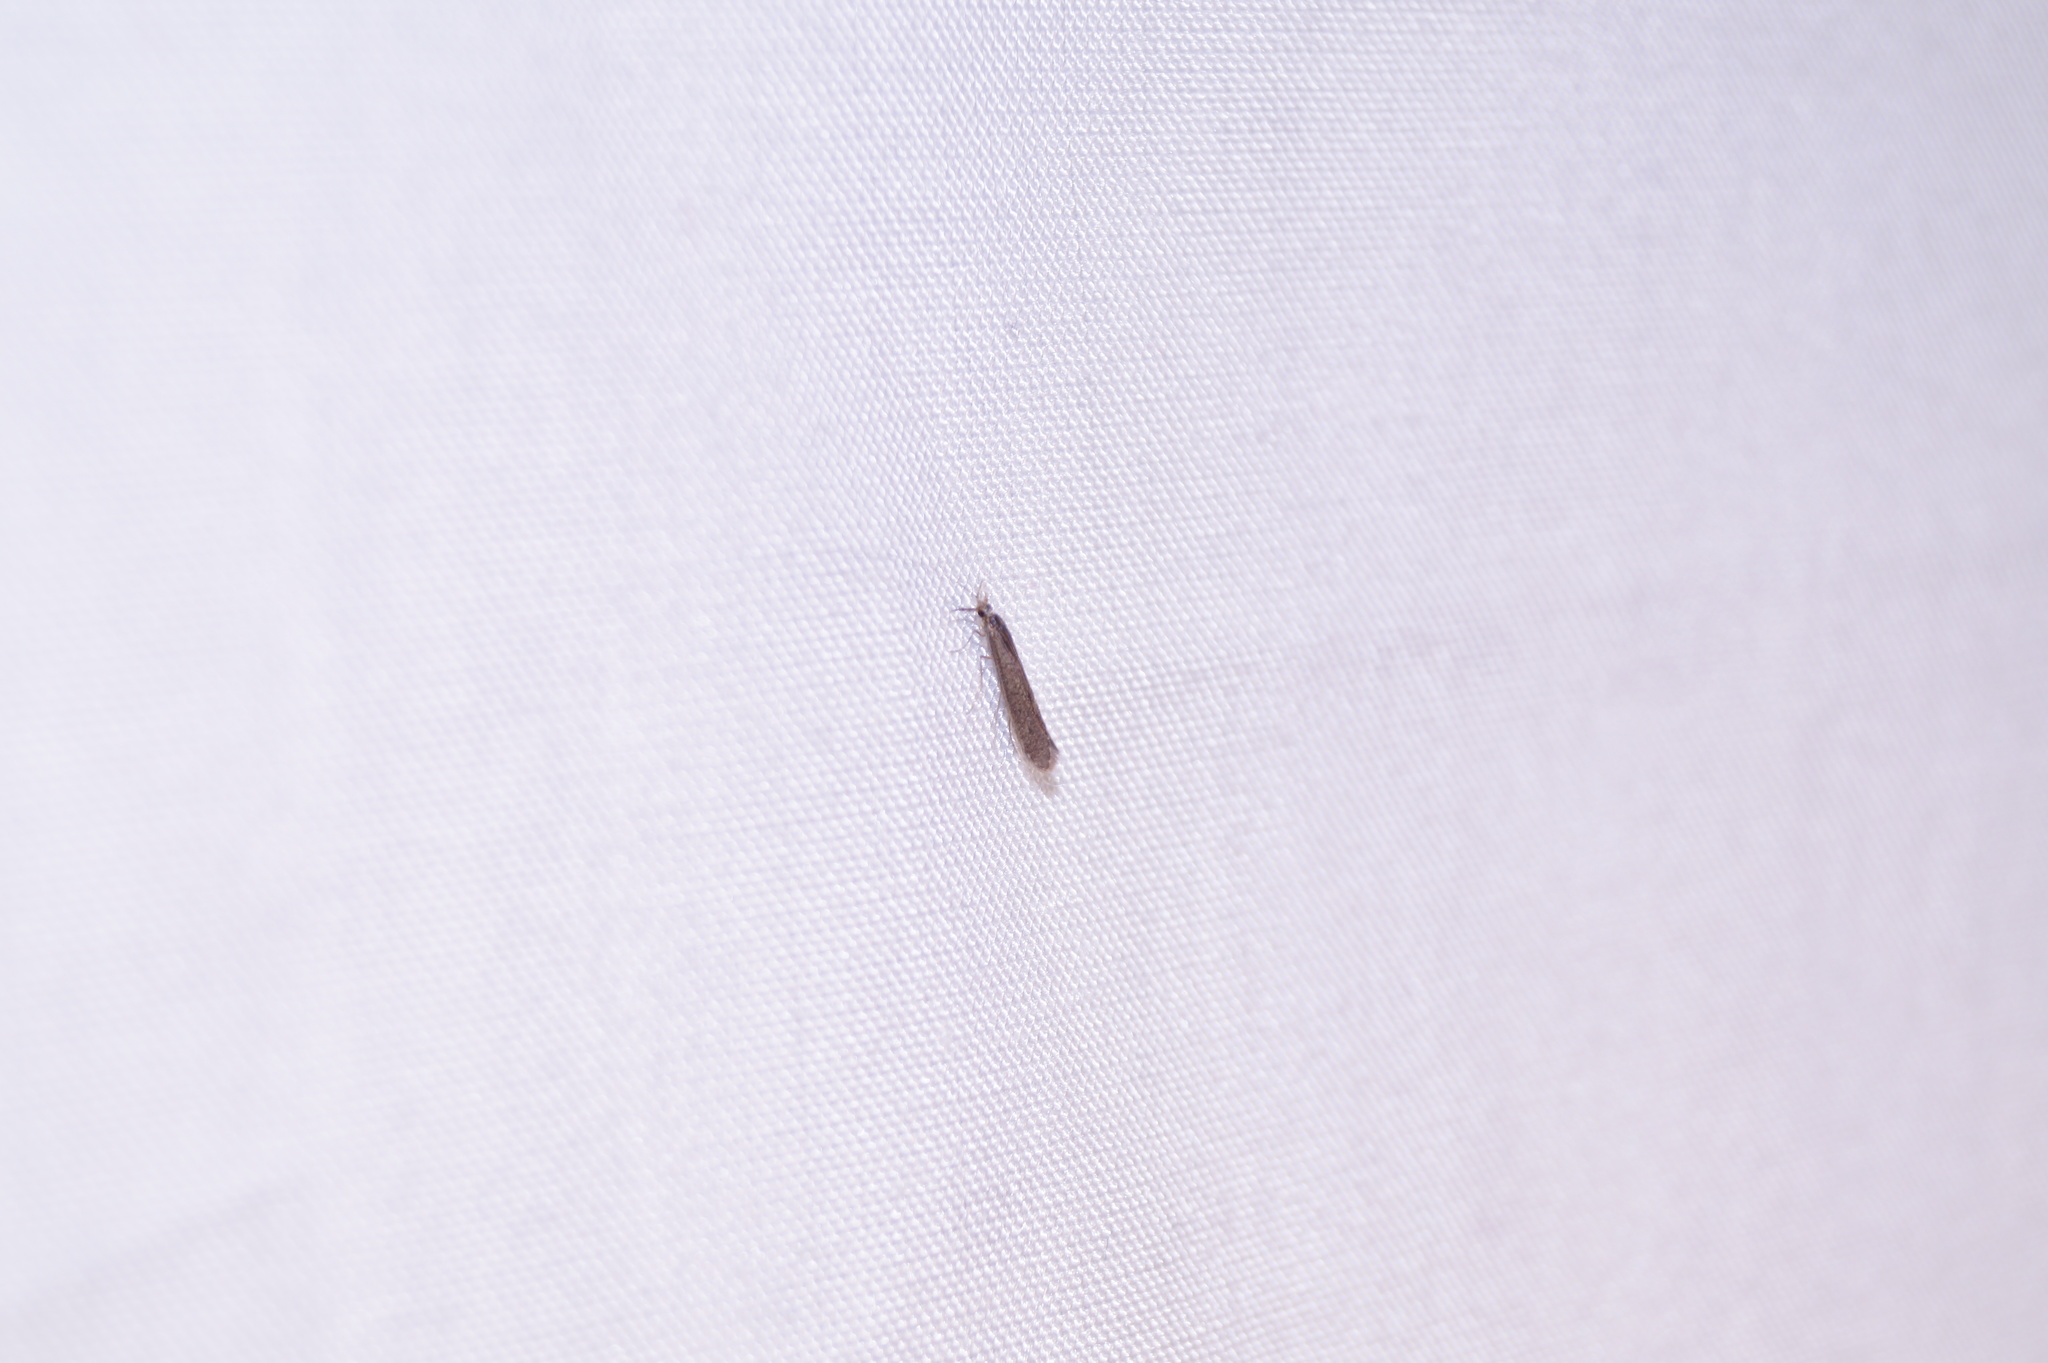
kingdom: Animalia
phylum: Arthropoda
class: Insecta
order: Trichoptera
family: Leptoceridae
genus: Leptocerus
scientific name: Leptocerus tineiformis
